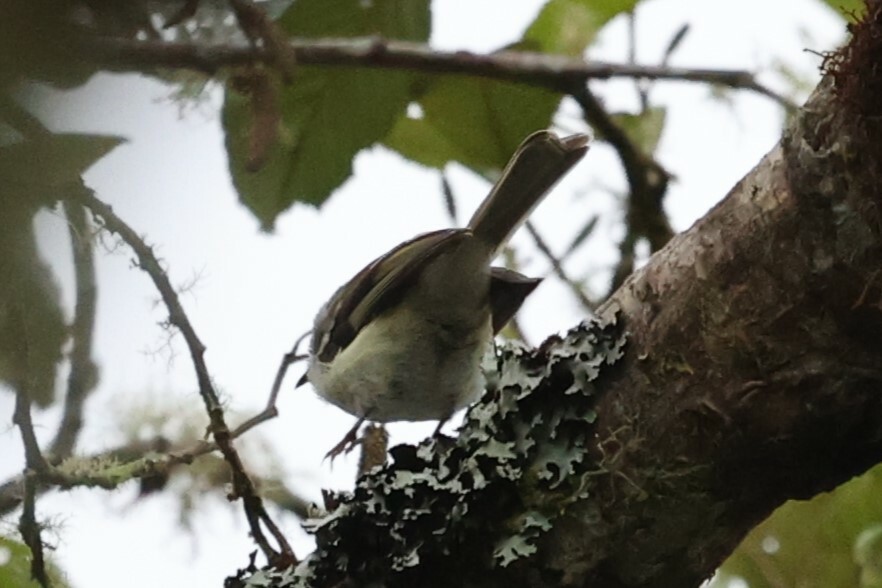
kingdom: Animalia
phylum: Chordata
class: Aves
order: Passeriformes
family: Tyrannidae
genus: Mecocerculus
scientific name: Mecocerculus stictopterus
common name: White-banded tyrannulet
